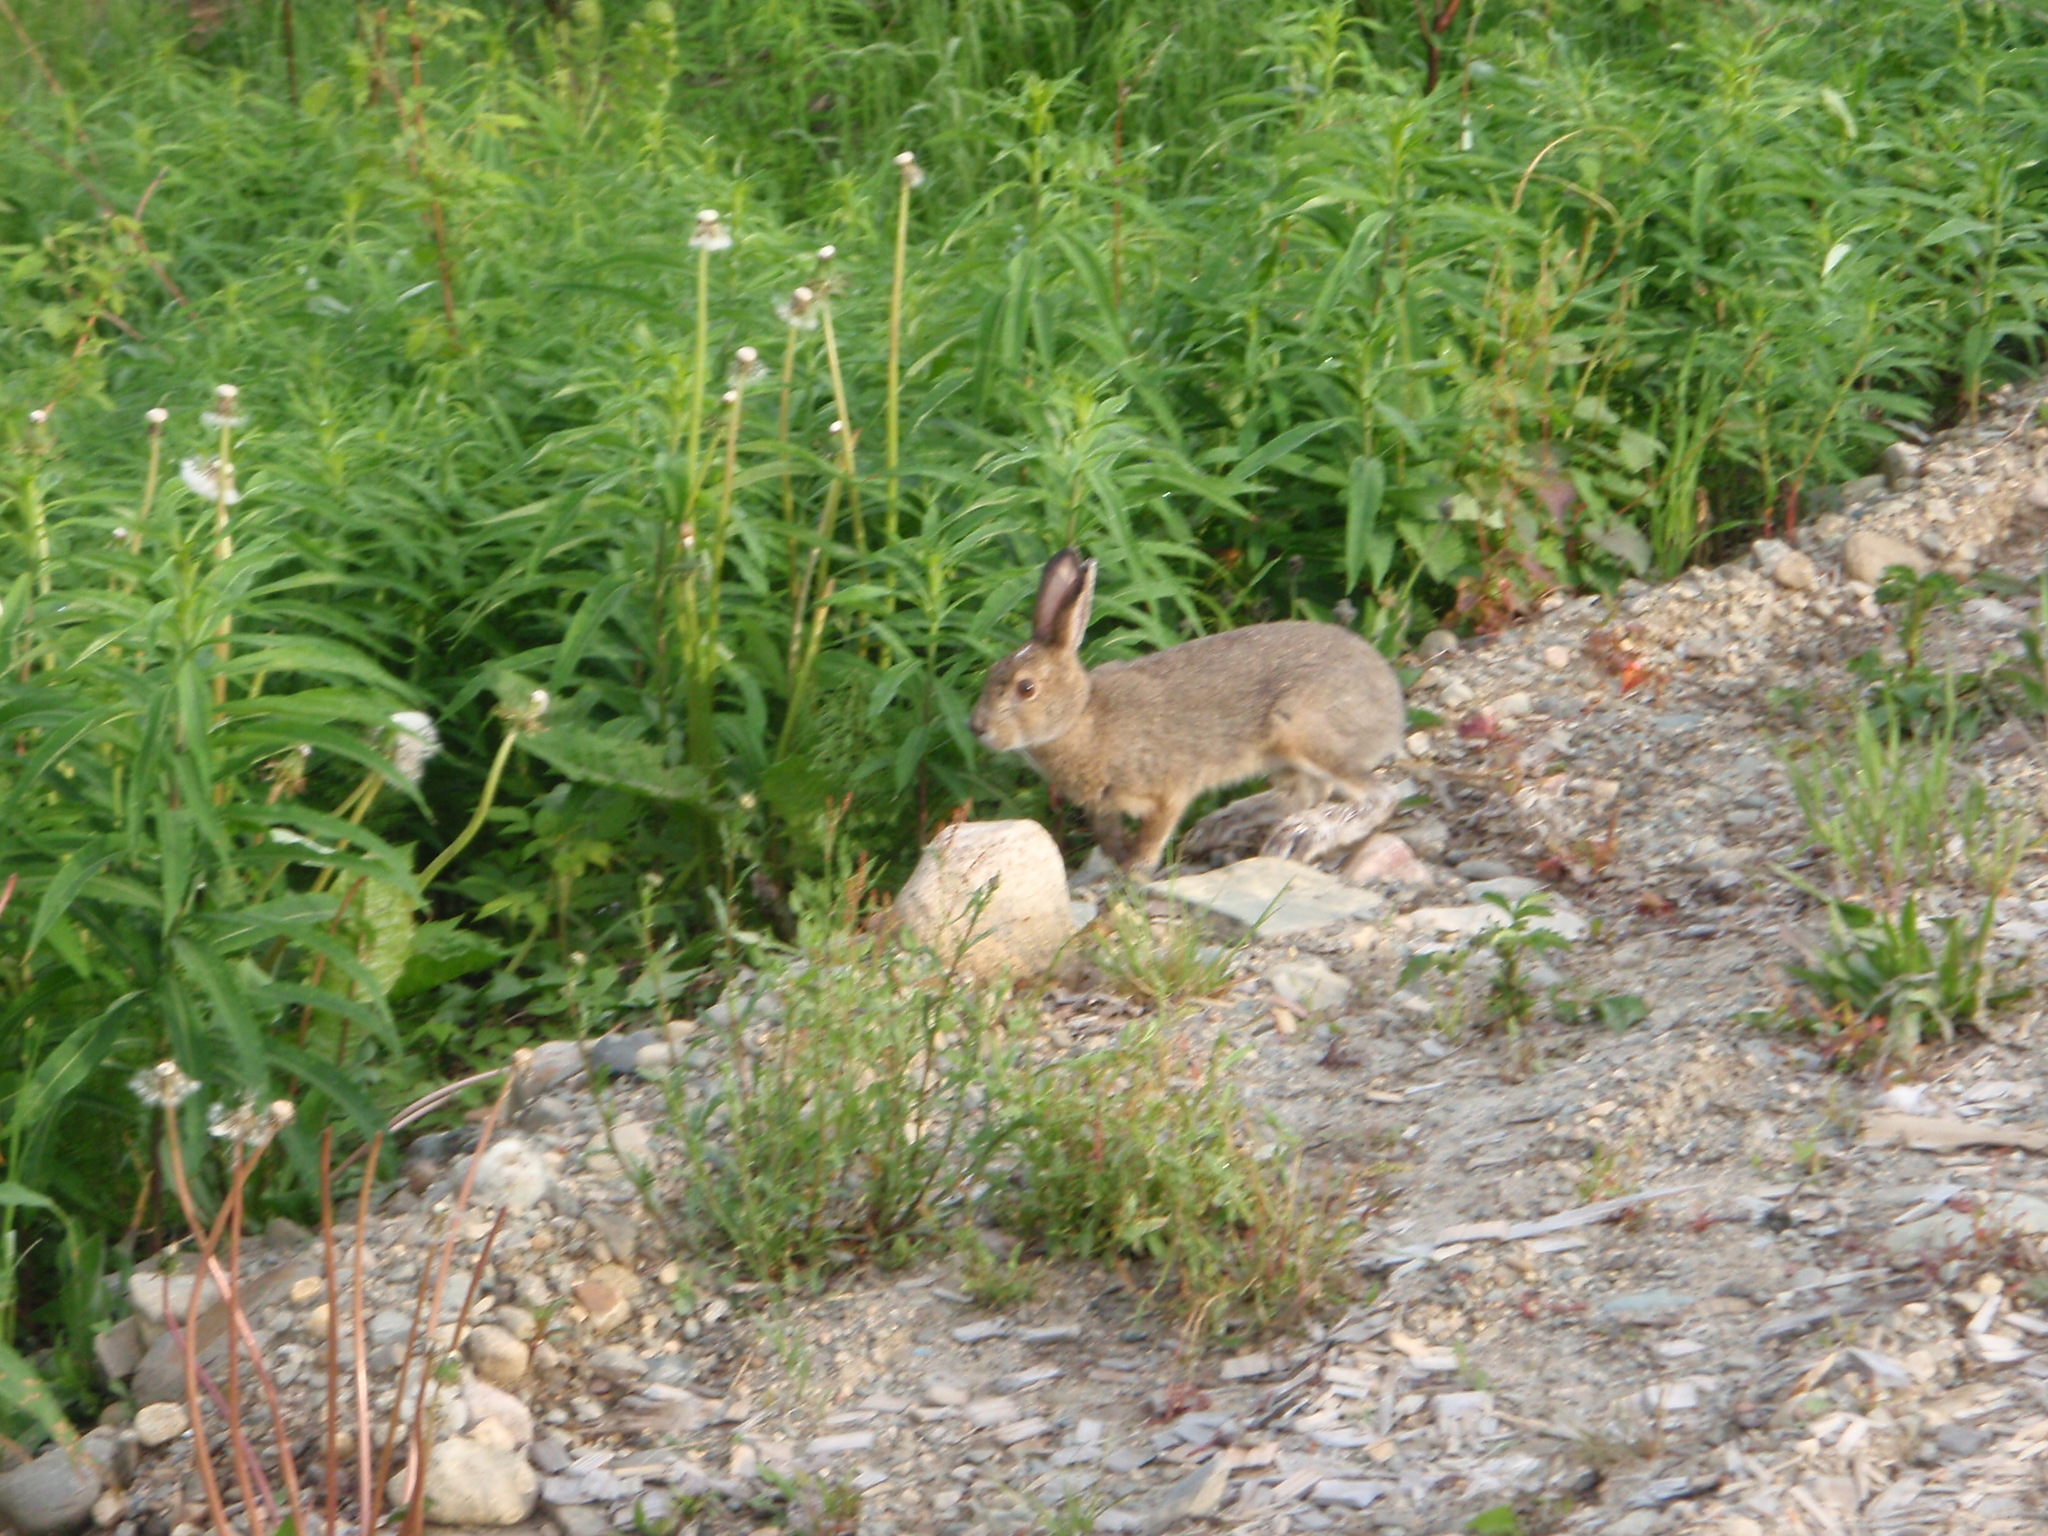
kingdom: Animalia
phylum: Chordata
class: Mammalia
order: Lagomorpha
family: Leporidae
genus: Lepus
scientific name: Lepus americanus
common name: Snowshoe hare
